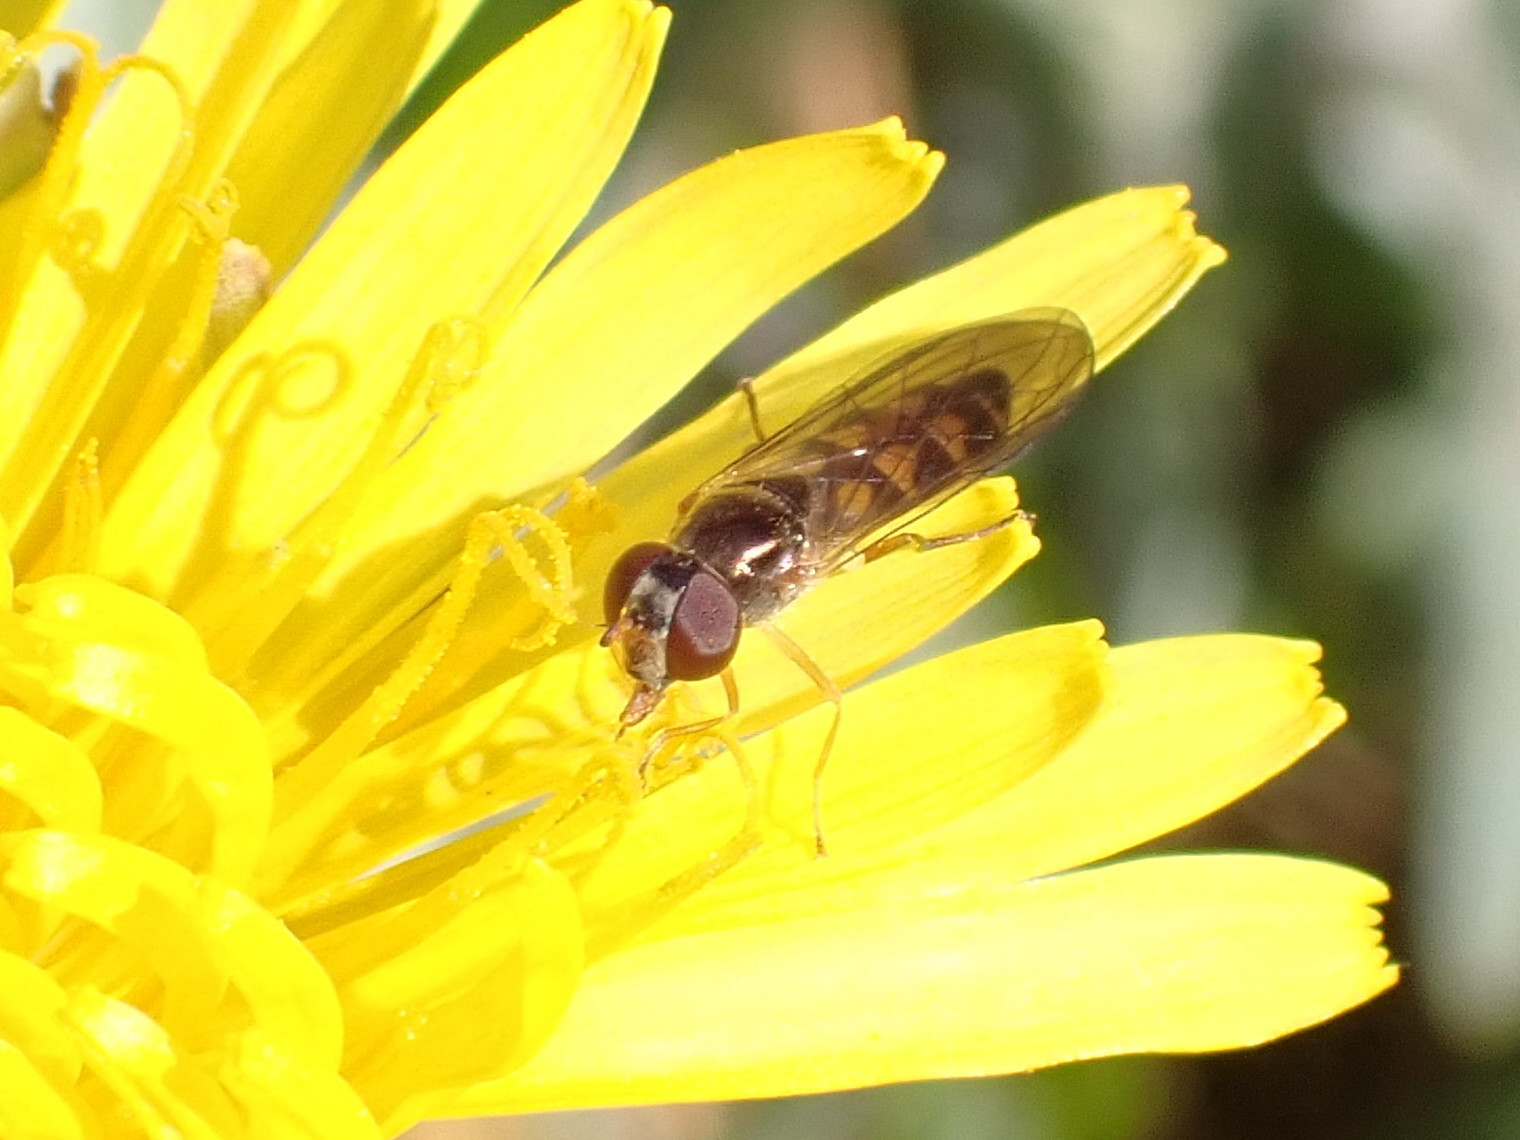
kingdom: Animalia
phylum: Arthropoda
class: Insecta
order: Diptera
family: Syrphidae
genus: Melanostoma
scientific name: Melanostoma mellina
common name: Hover fly
